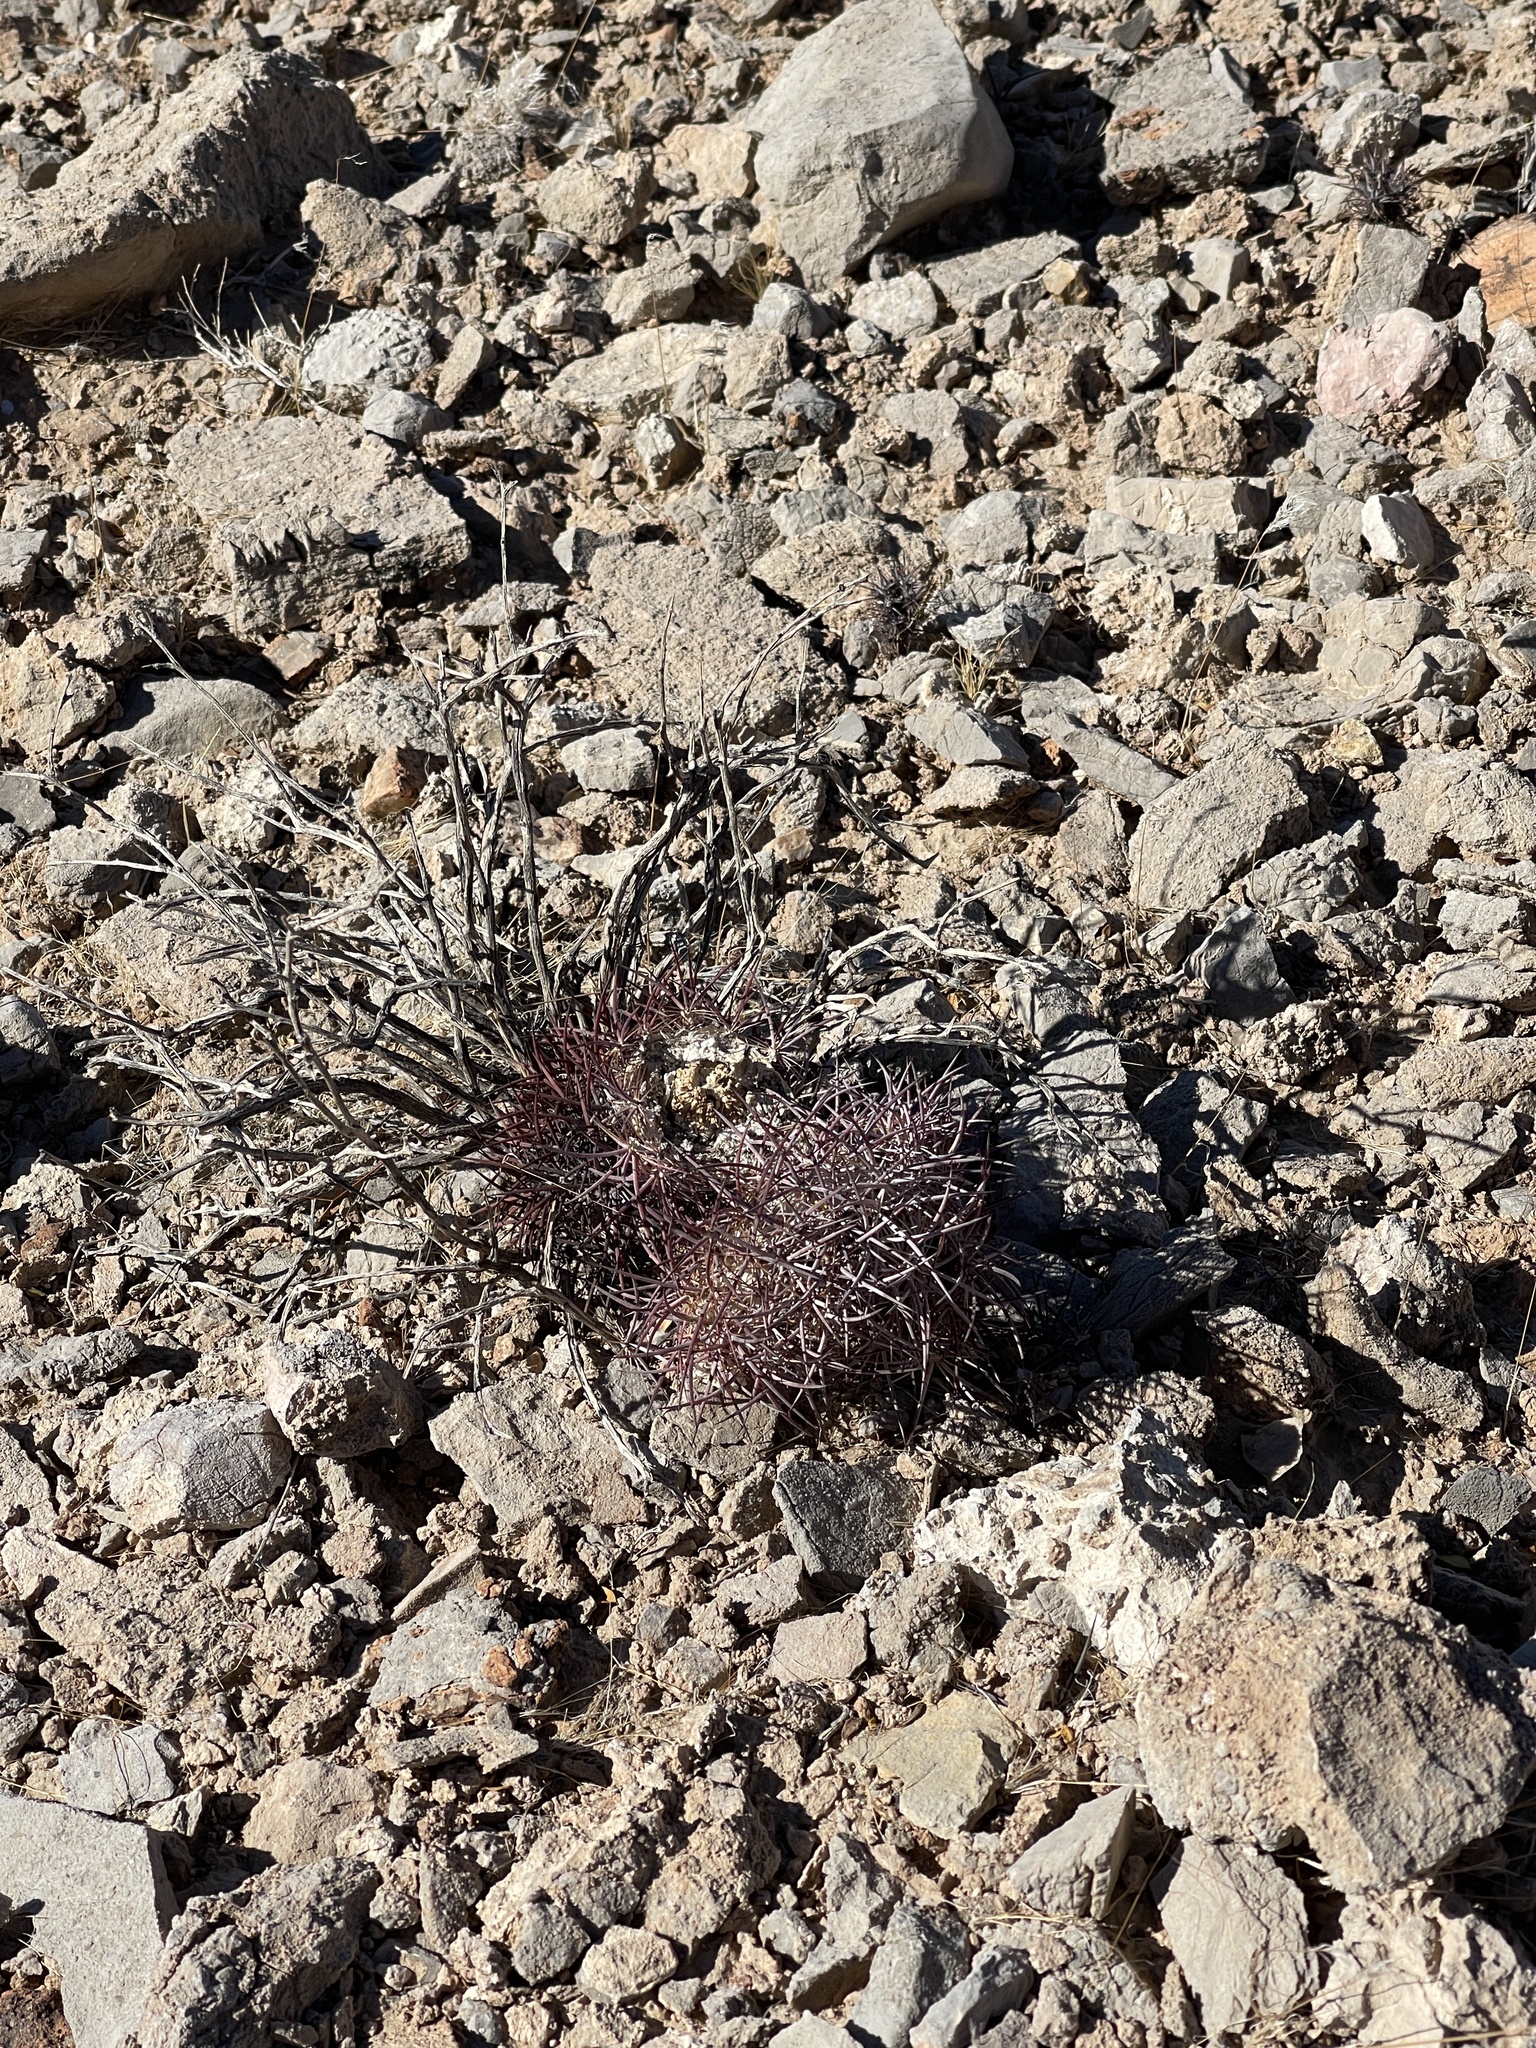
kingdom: Plantae
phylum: Tracheophyta
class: Magnoliopsida
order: Caryophyllales
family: Cactaceae
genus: Sclerocactus
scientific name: Sclerocactus johnsonii
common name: Eight-spine fishhook cactus
